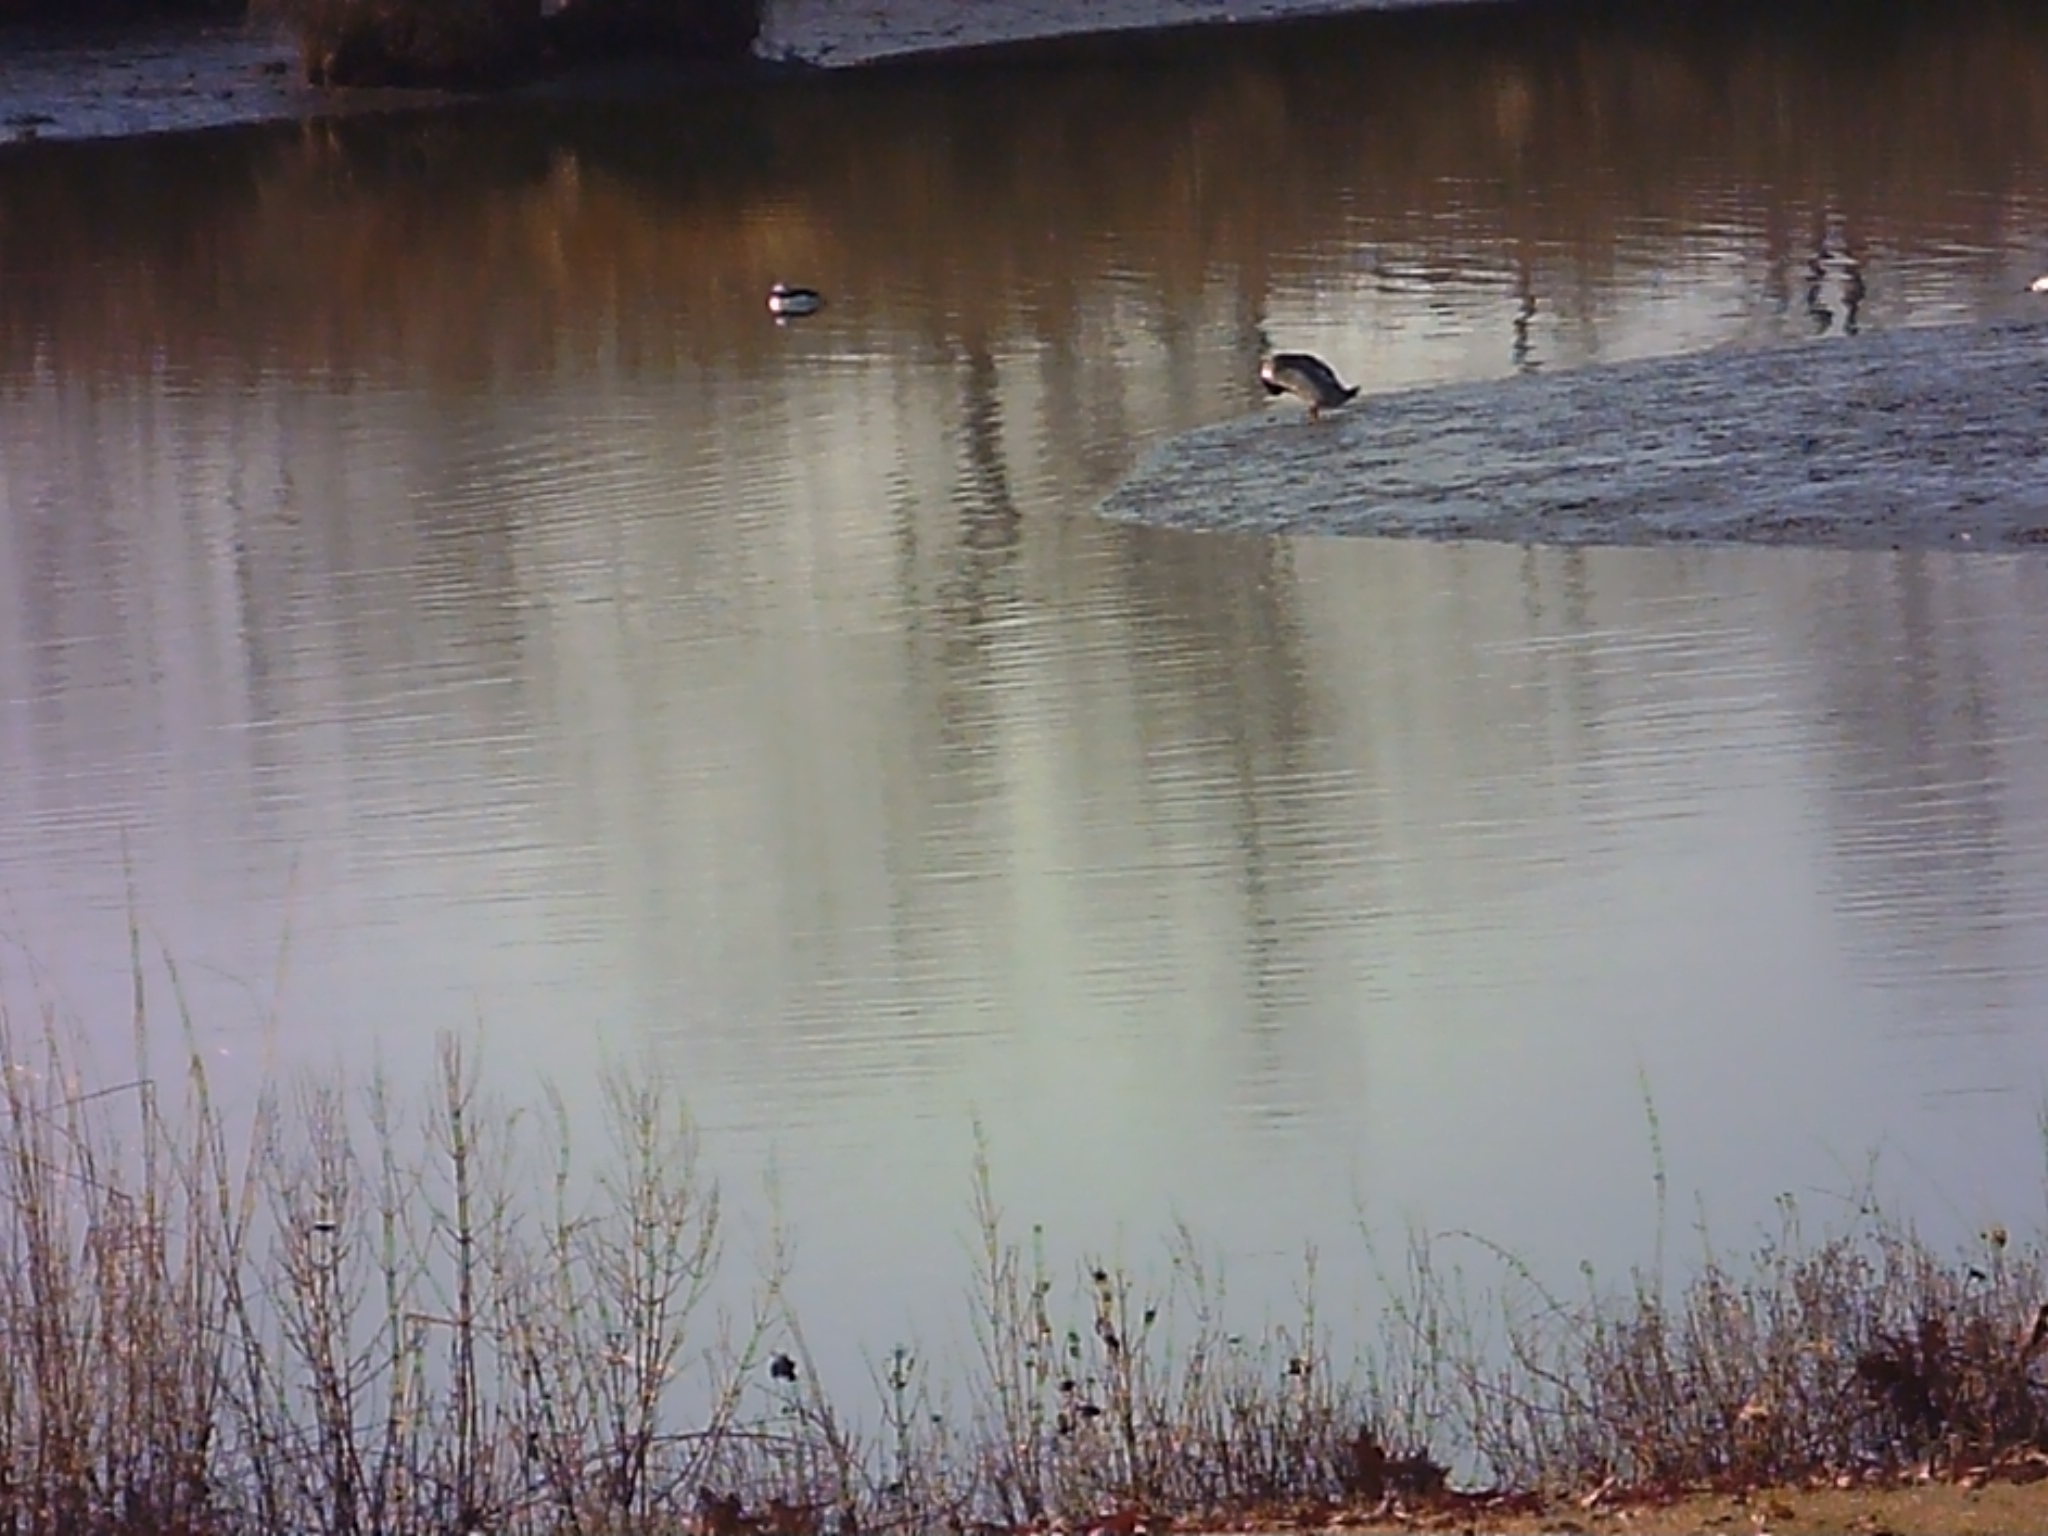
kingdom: Animalia
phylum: Chordata
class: Aves
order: Anseriformes
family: Anatidae
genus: Mergus
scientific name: Mergus serrator
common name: Red-breasted merganser
